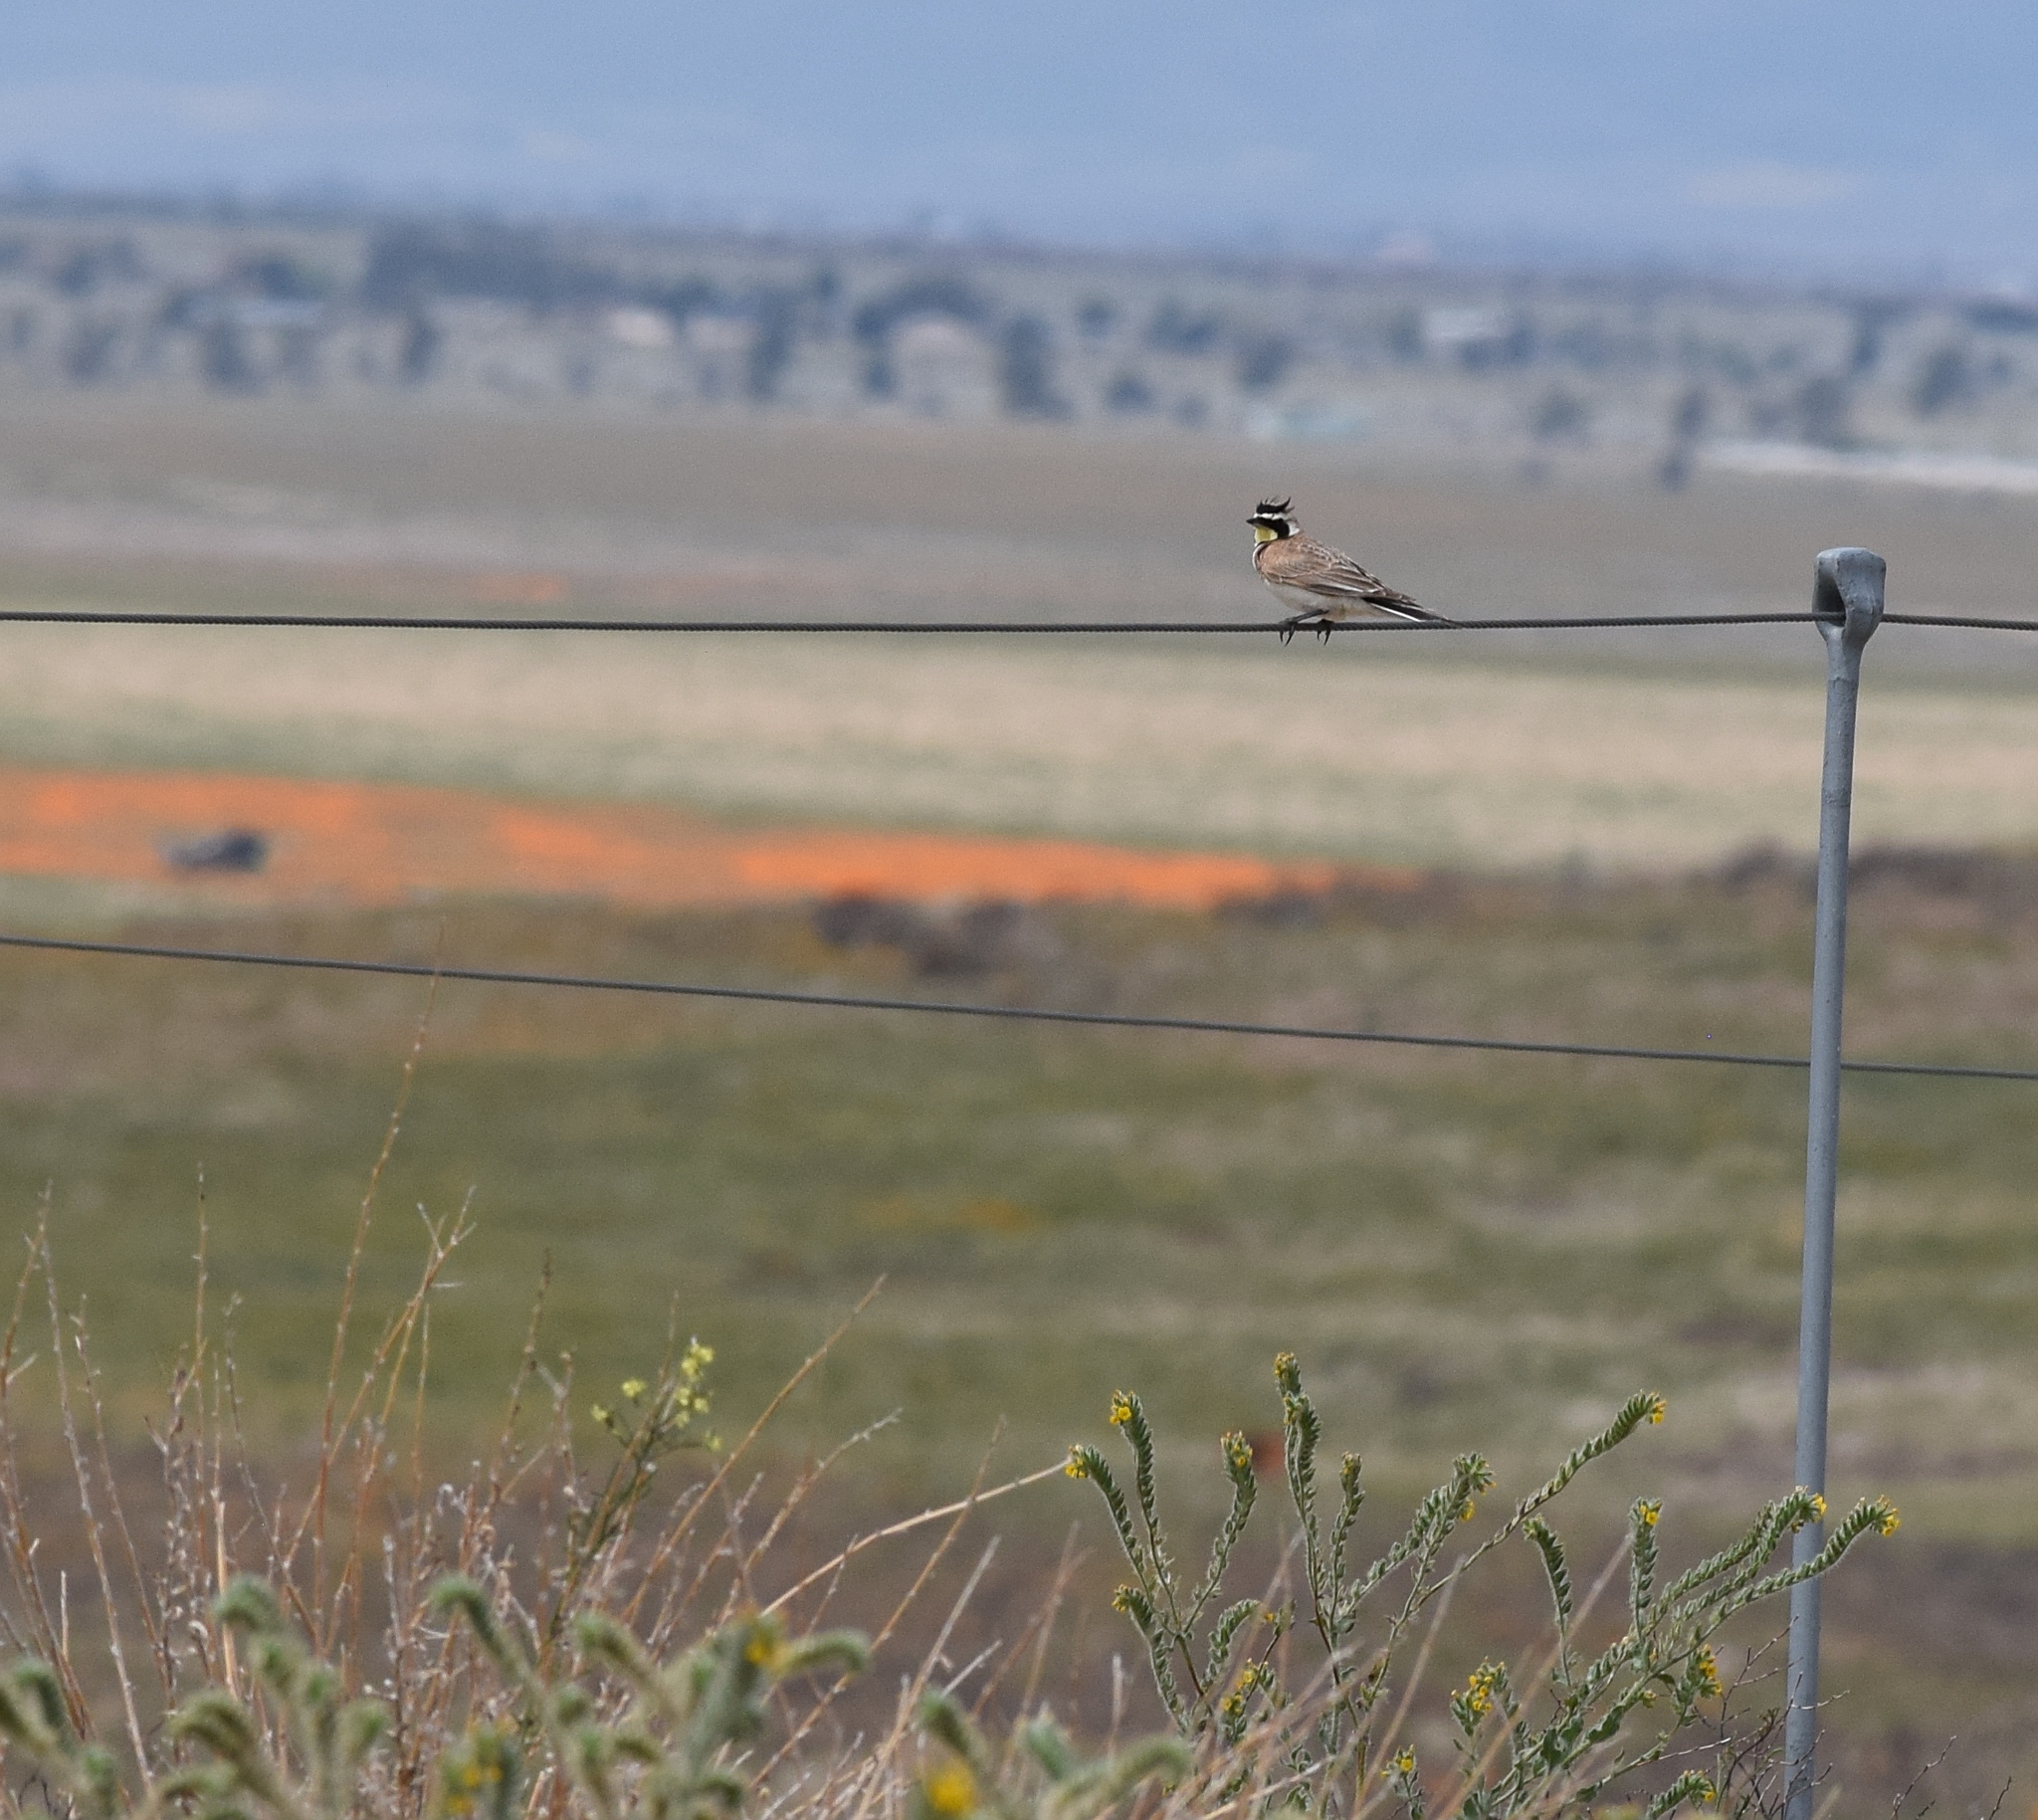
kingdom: Animalia
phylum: Chordata
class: Aves
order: Passeriformes
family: Alaudidae
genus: Eremophila
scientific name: Eremophila alpestris
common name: Horned lark
